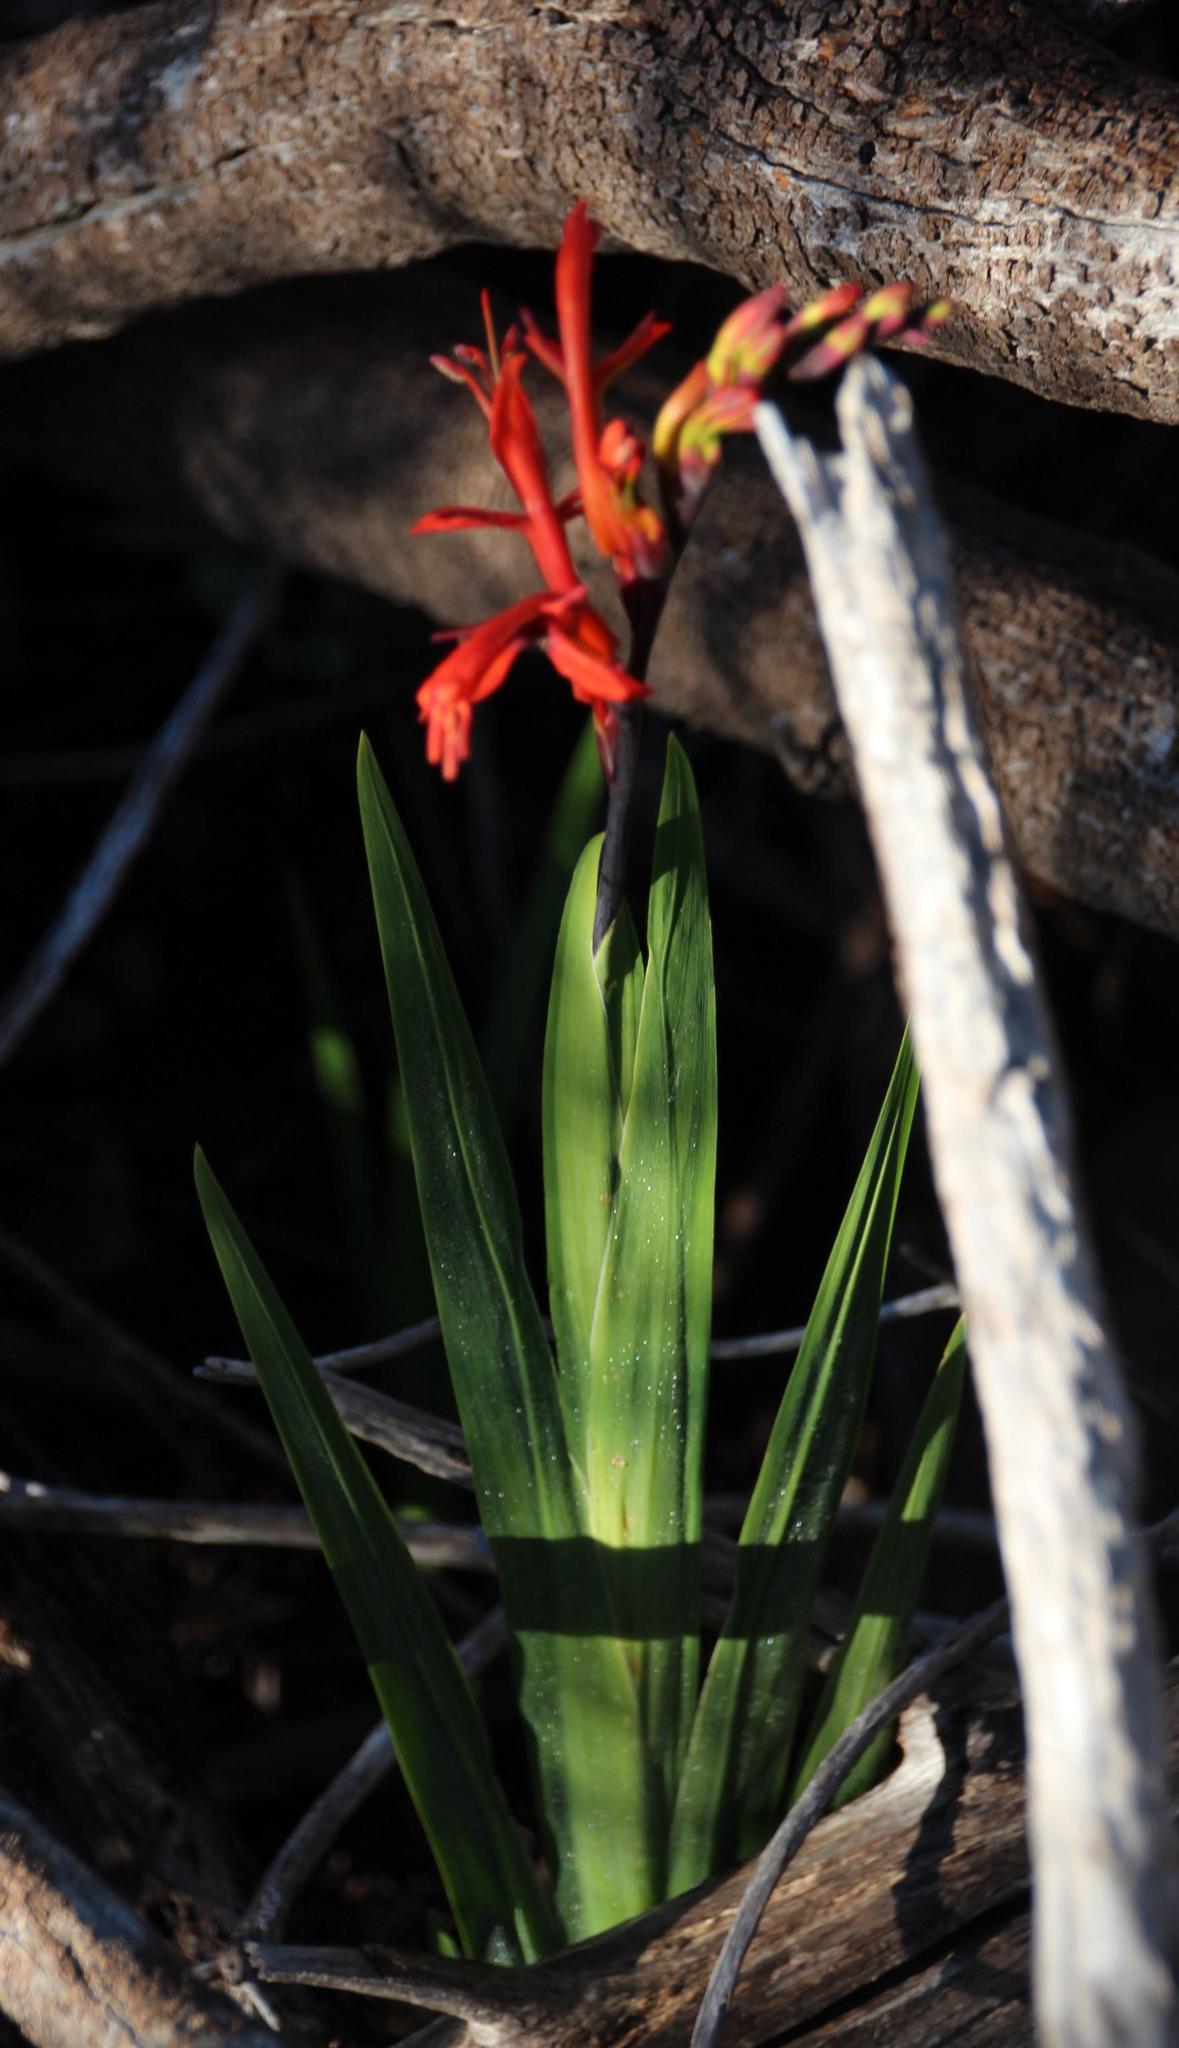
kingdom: Plantae
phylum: Tracheophyta
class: Liliopsida
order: Asparagales
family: Iridaceae
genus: Chasmanthe
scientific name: Chasmanthe aethiopica
